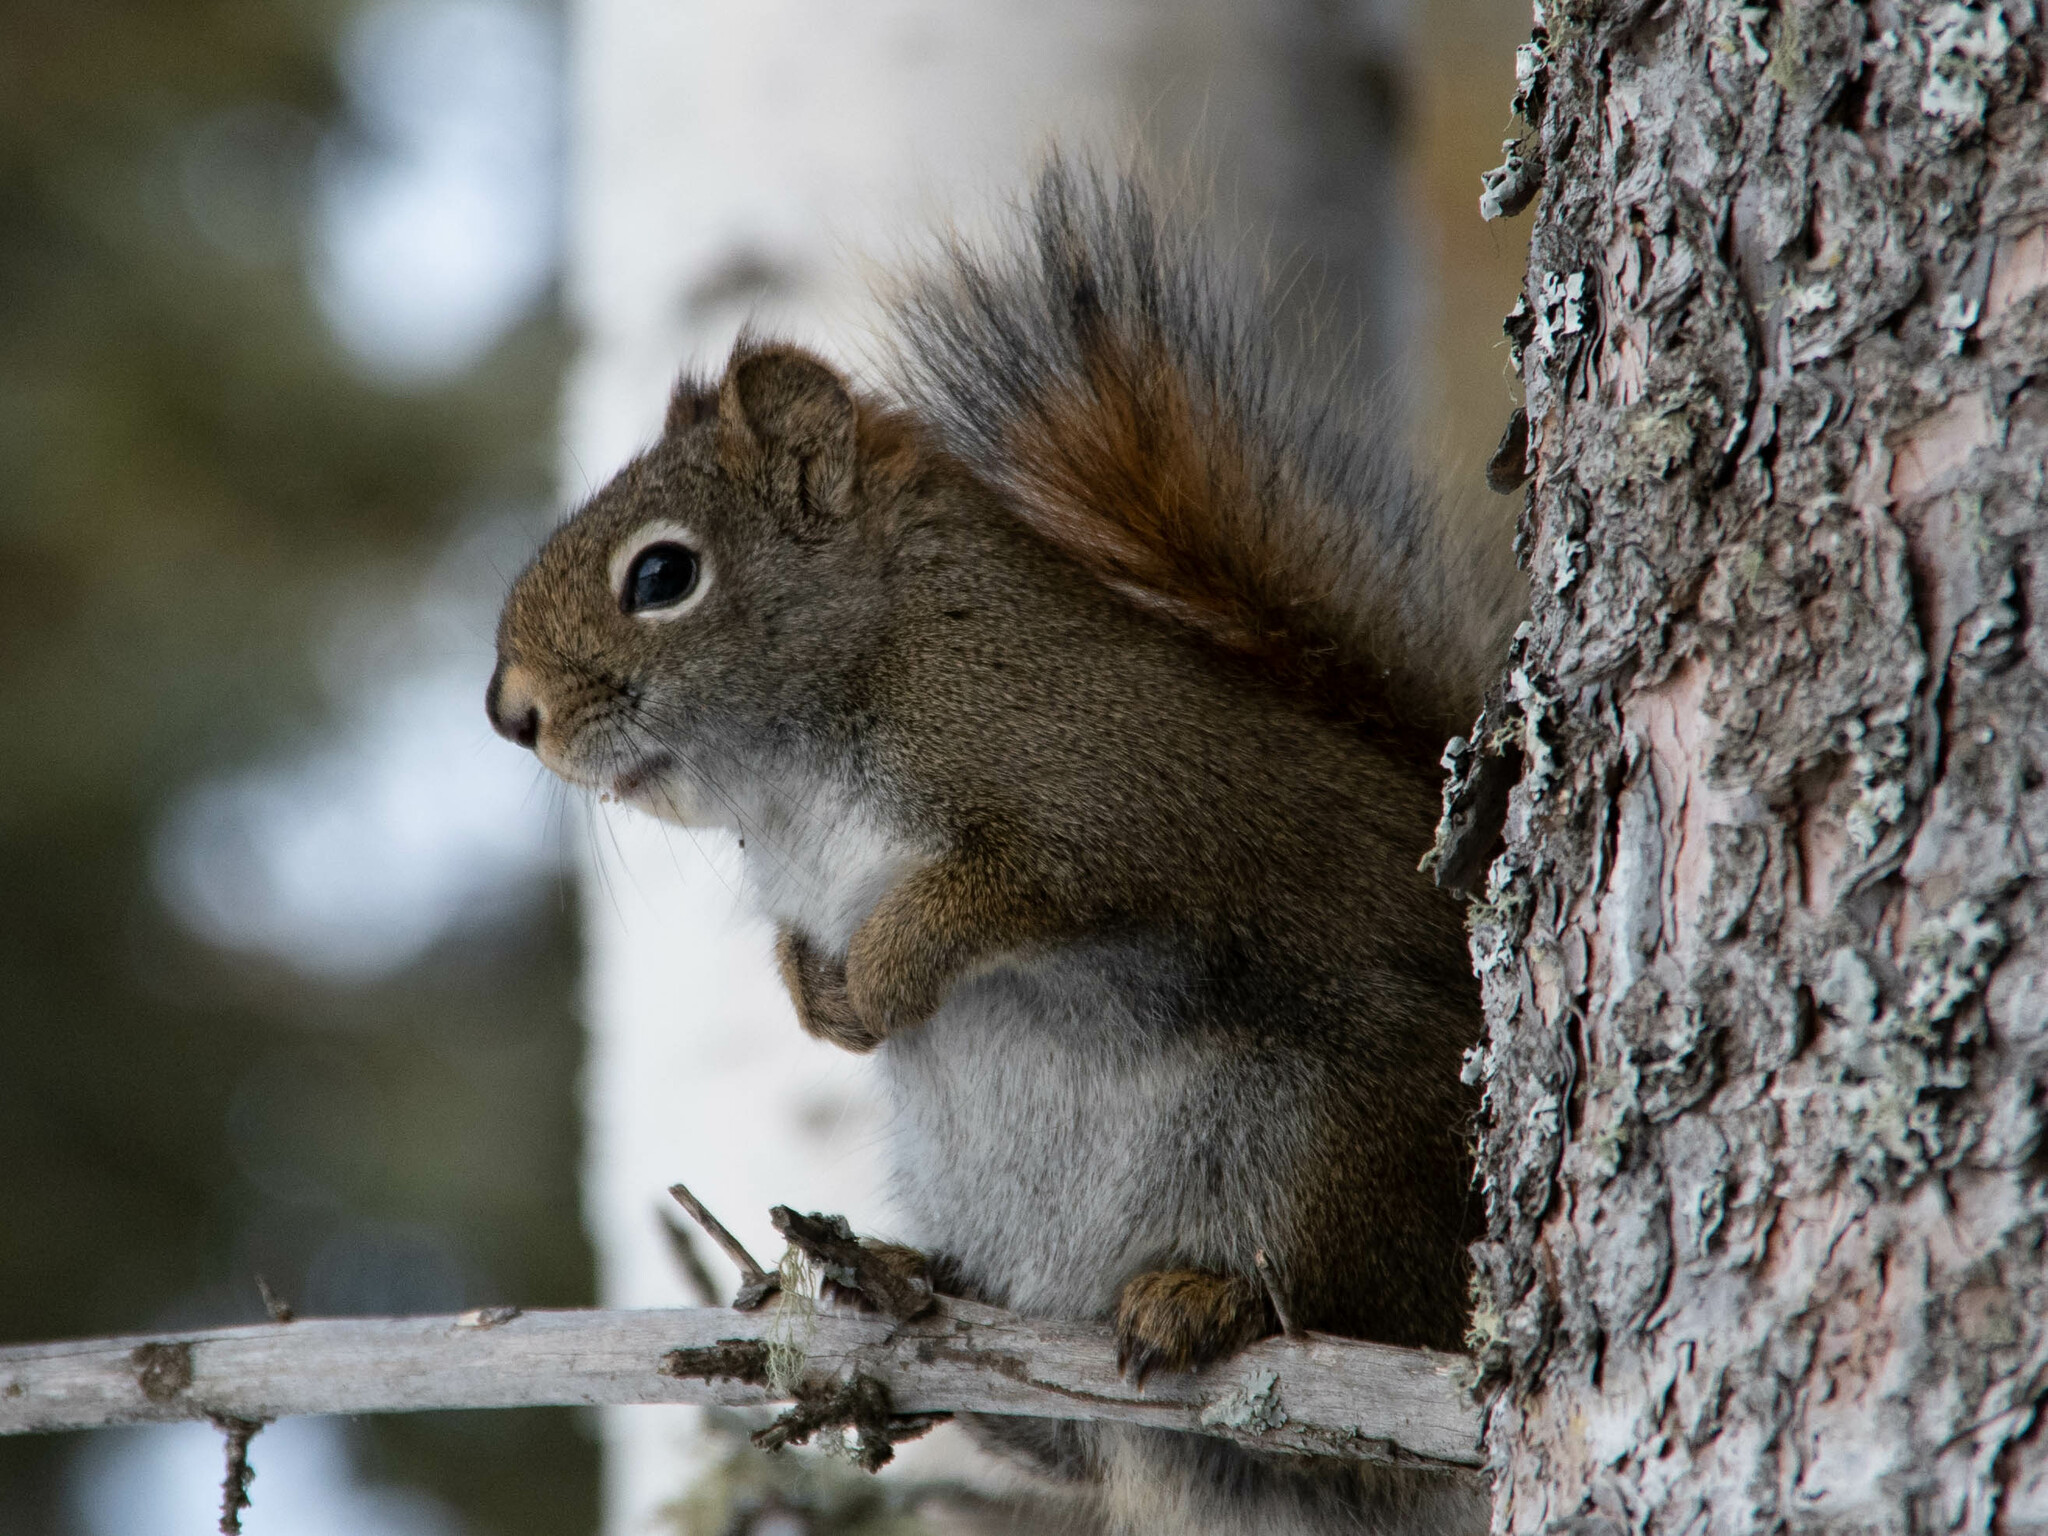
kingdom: Animalia
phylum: Chordata
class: Mammalia
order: Rodentia
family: Sciuridae
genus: Tamiasciurus
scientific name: Tamiasciurus hudsonicus
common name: Red squirrel
